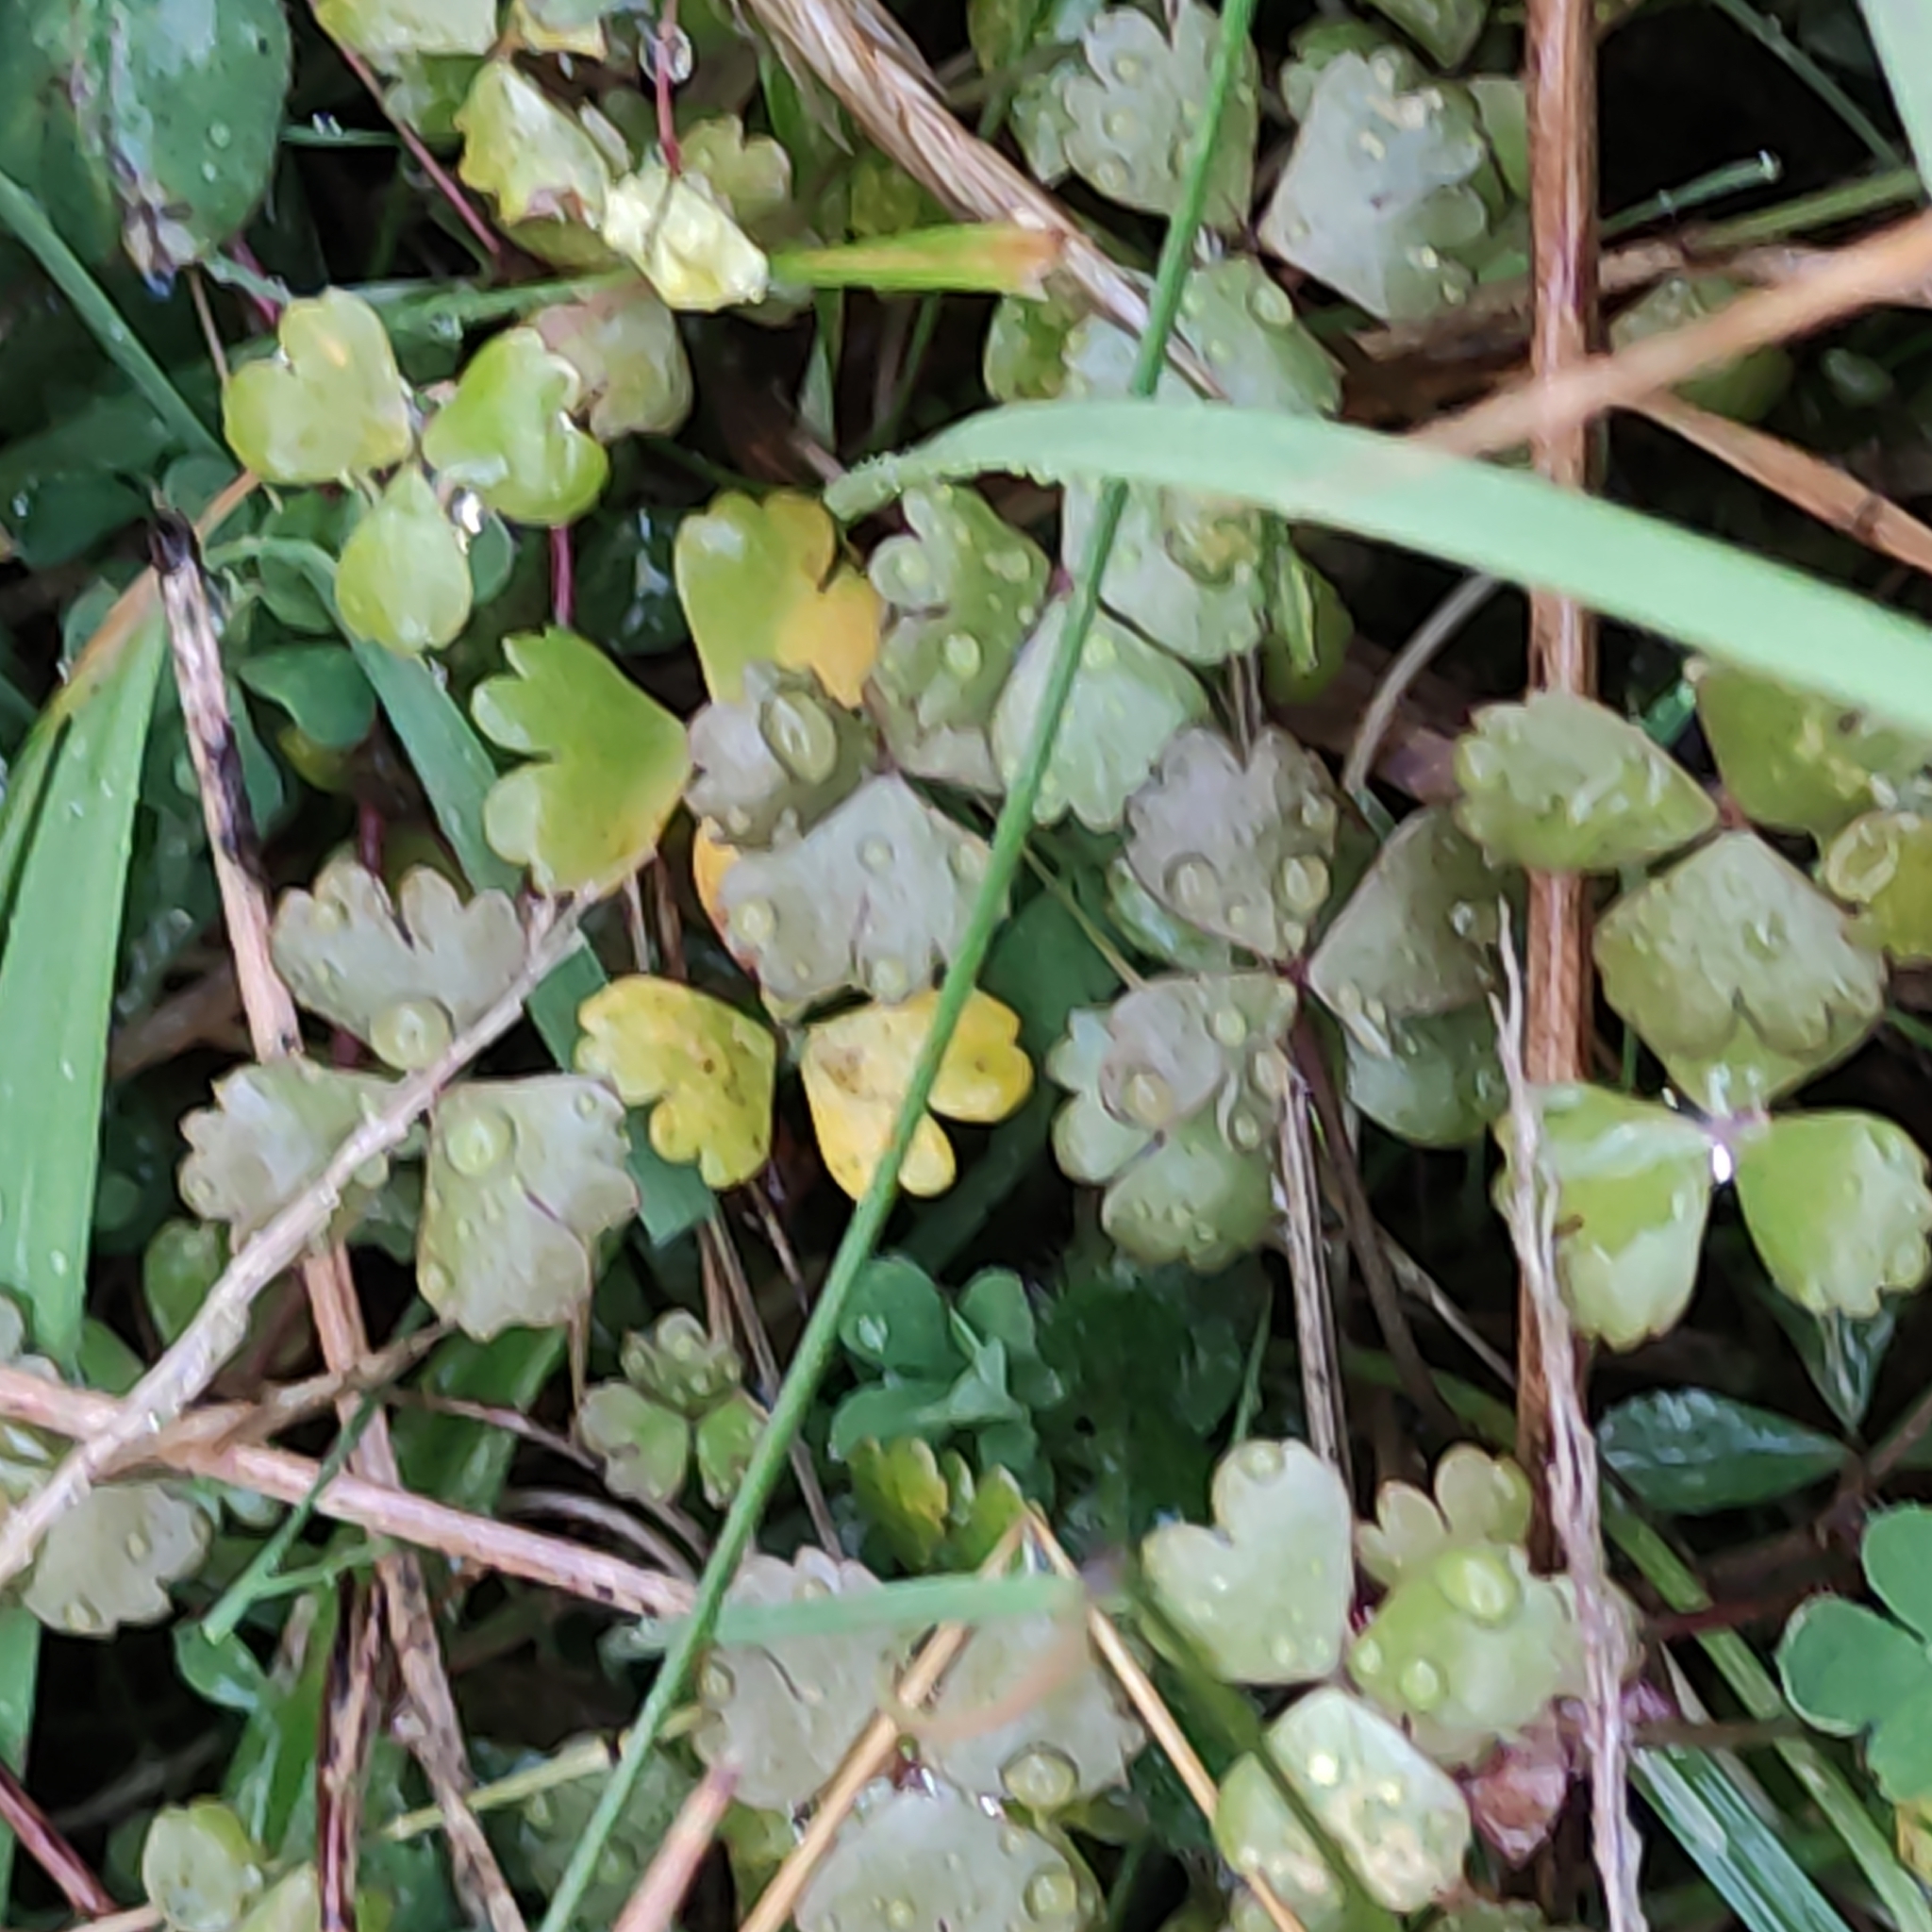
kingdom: Plantae
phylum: Tracheophyta
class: Magnoliopsida
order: Apiales
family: Araliaceae
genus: Hydrocotyle
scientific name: Hydrocotyle sulcata
